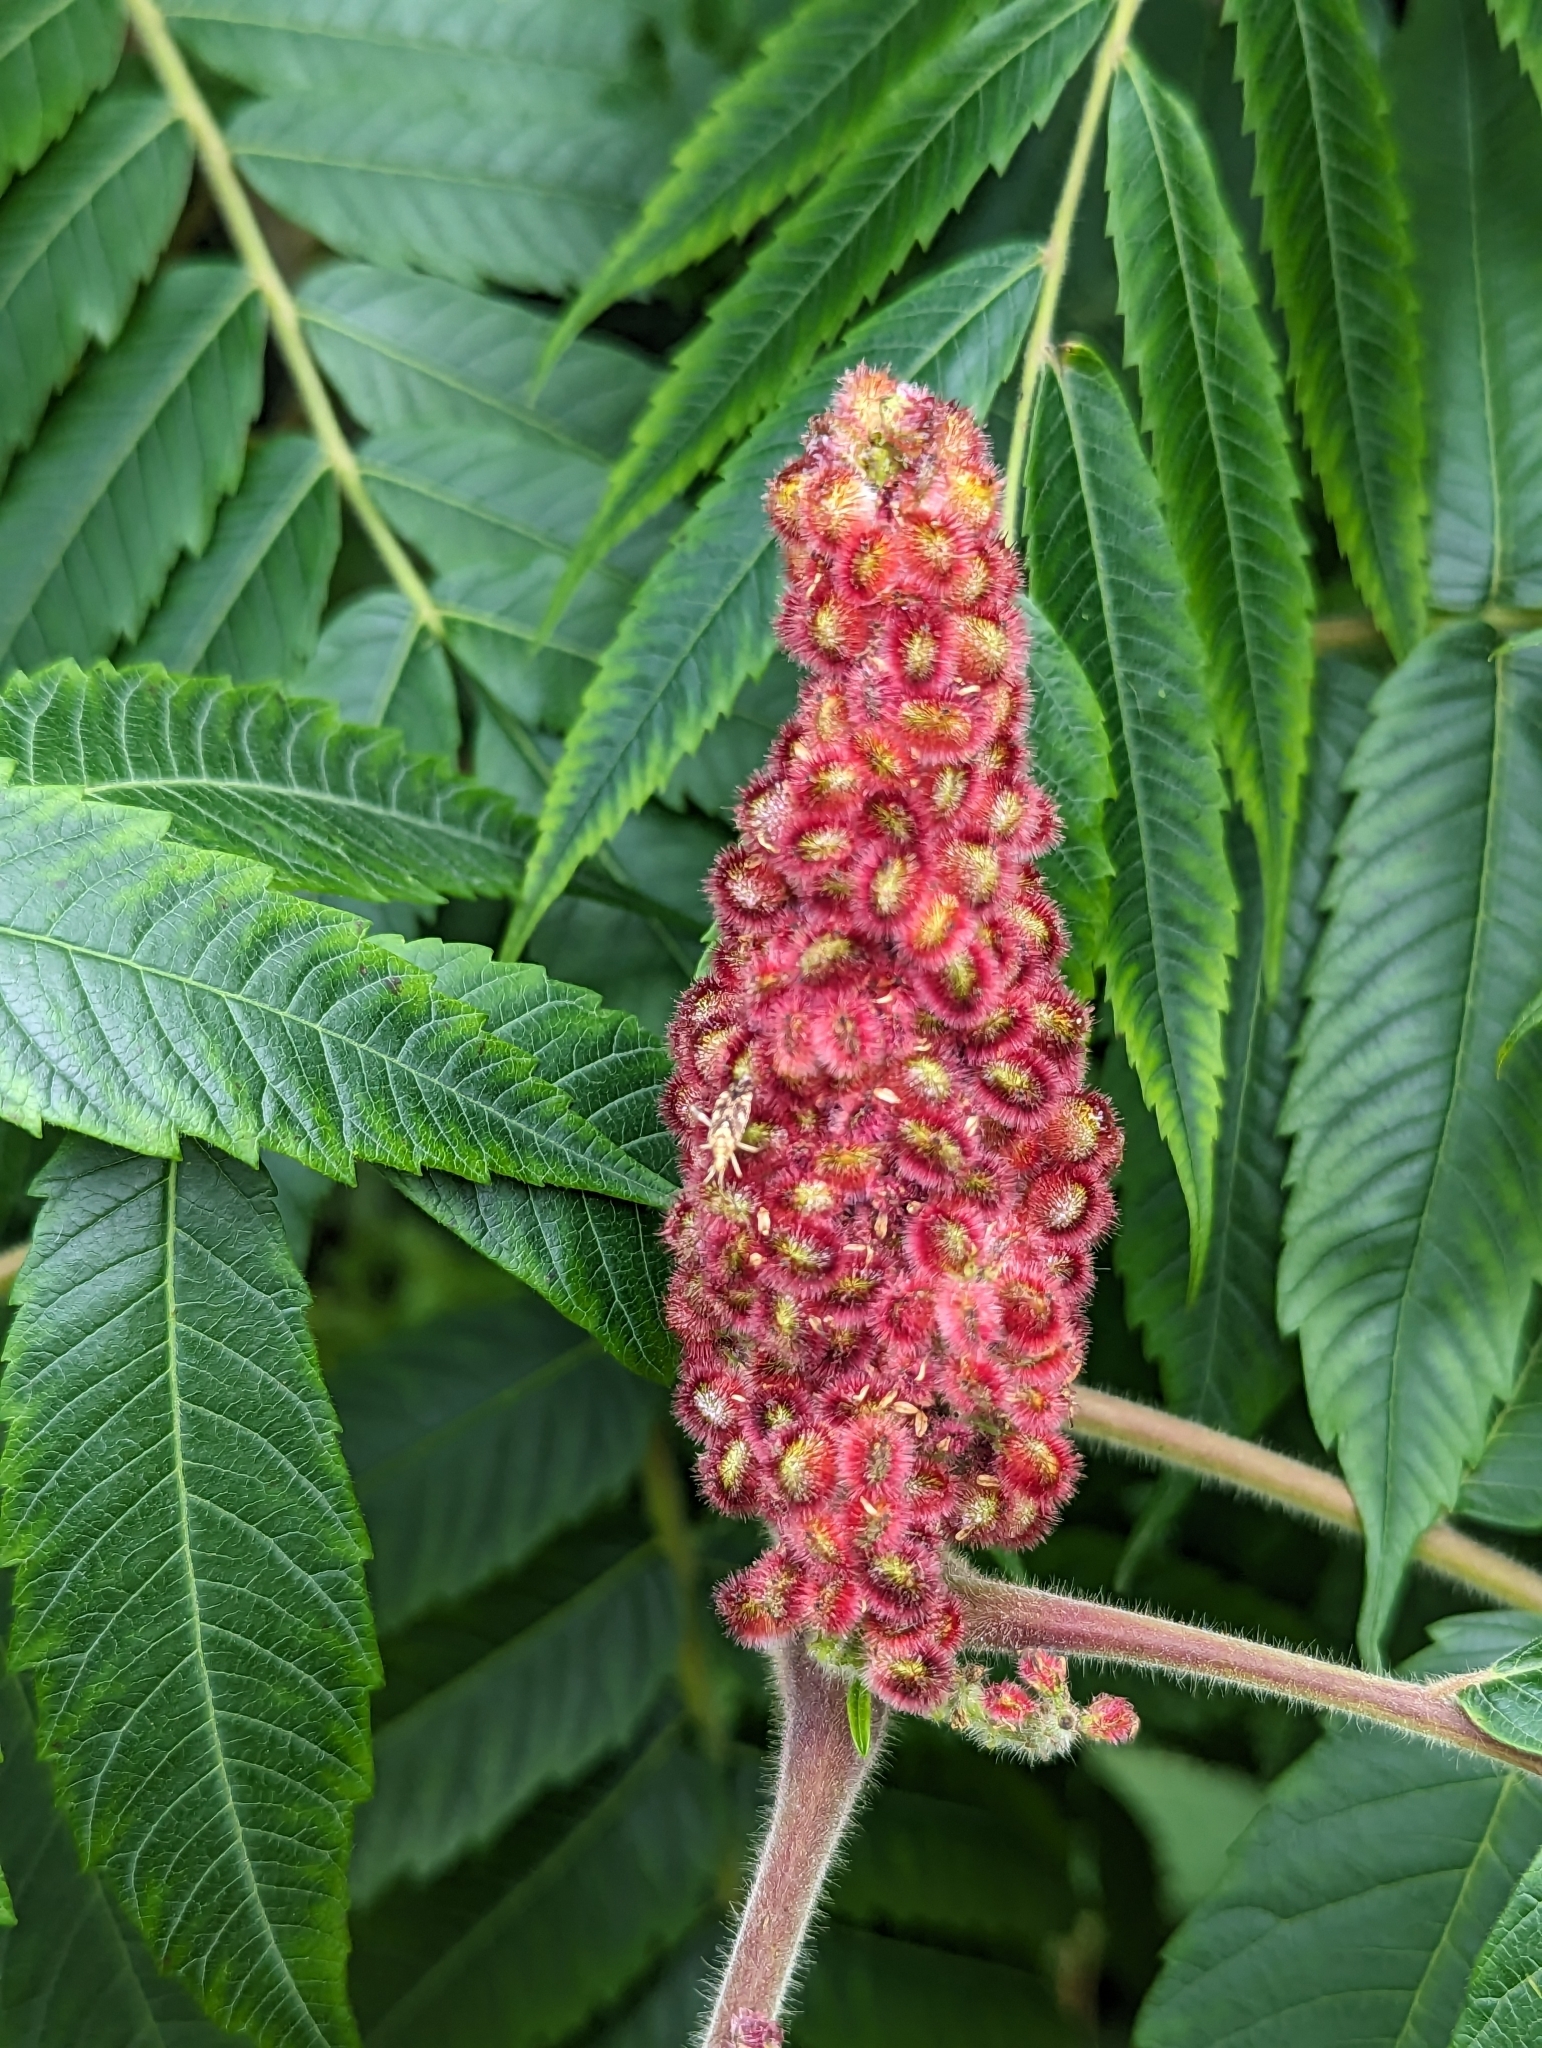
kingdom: Plantae
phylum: Tracheophyta
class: Magnoliopsida
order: Sapindales
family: Anacardiaceae
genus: Rhus
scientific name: Rhus typhina
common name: Staghorn sumac
